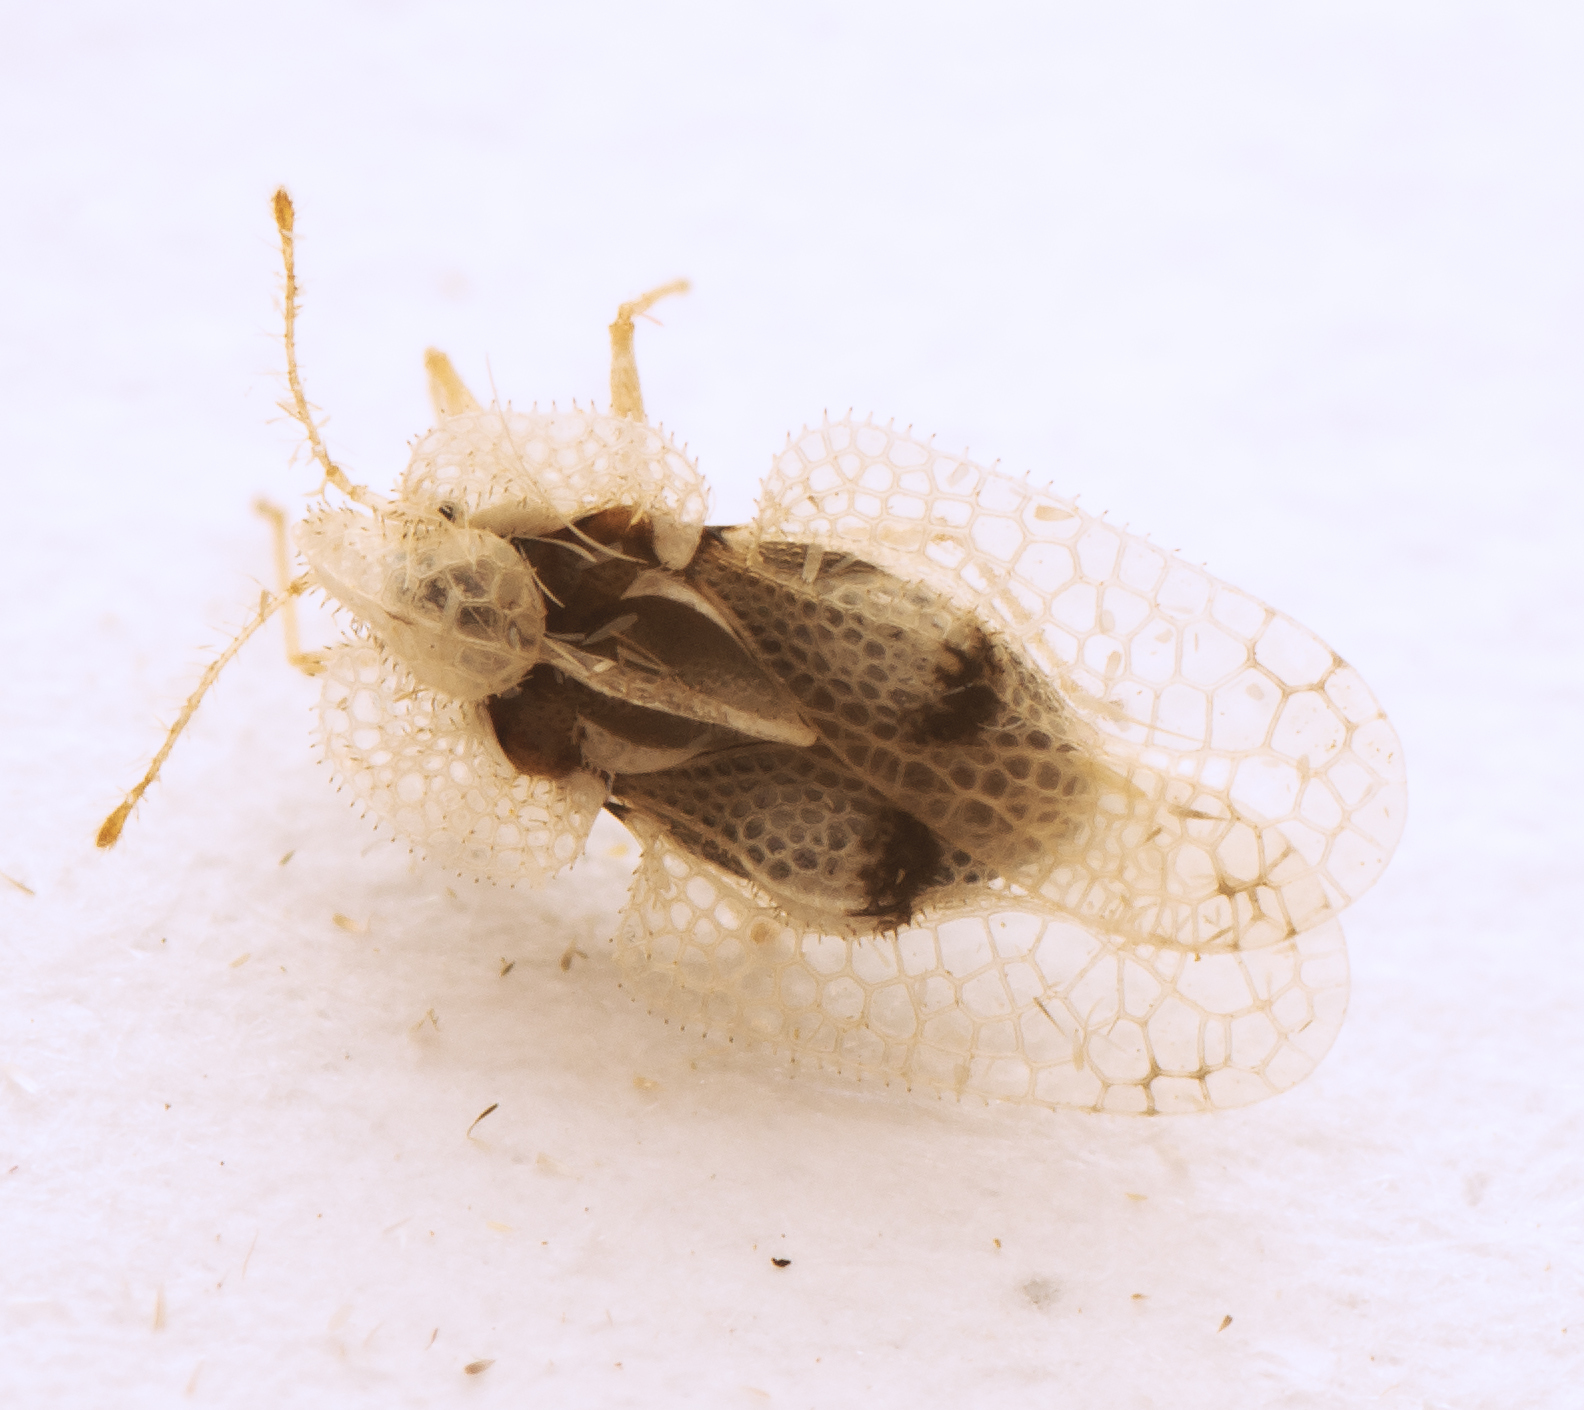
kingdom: Animalia
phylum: Arthropoda
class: Insecta
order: Hemiptera
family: Tingidae
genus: Corythucha
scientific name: Corythucha ciliata
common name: Sycamore lace bug
